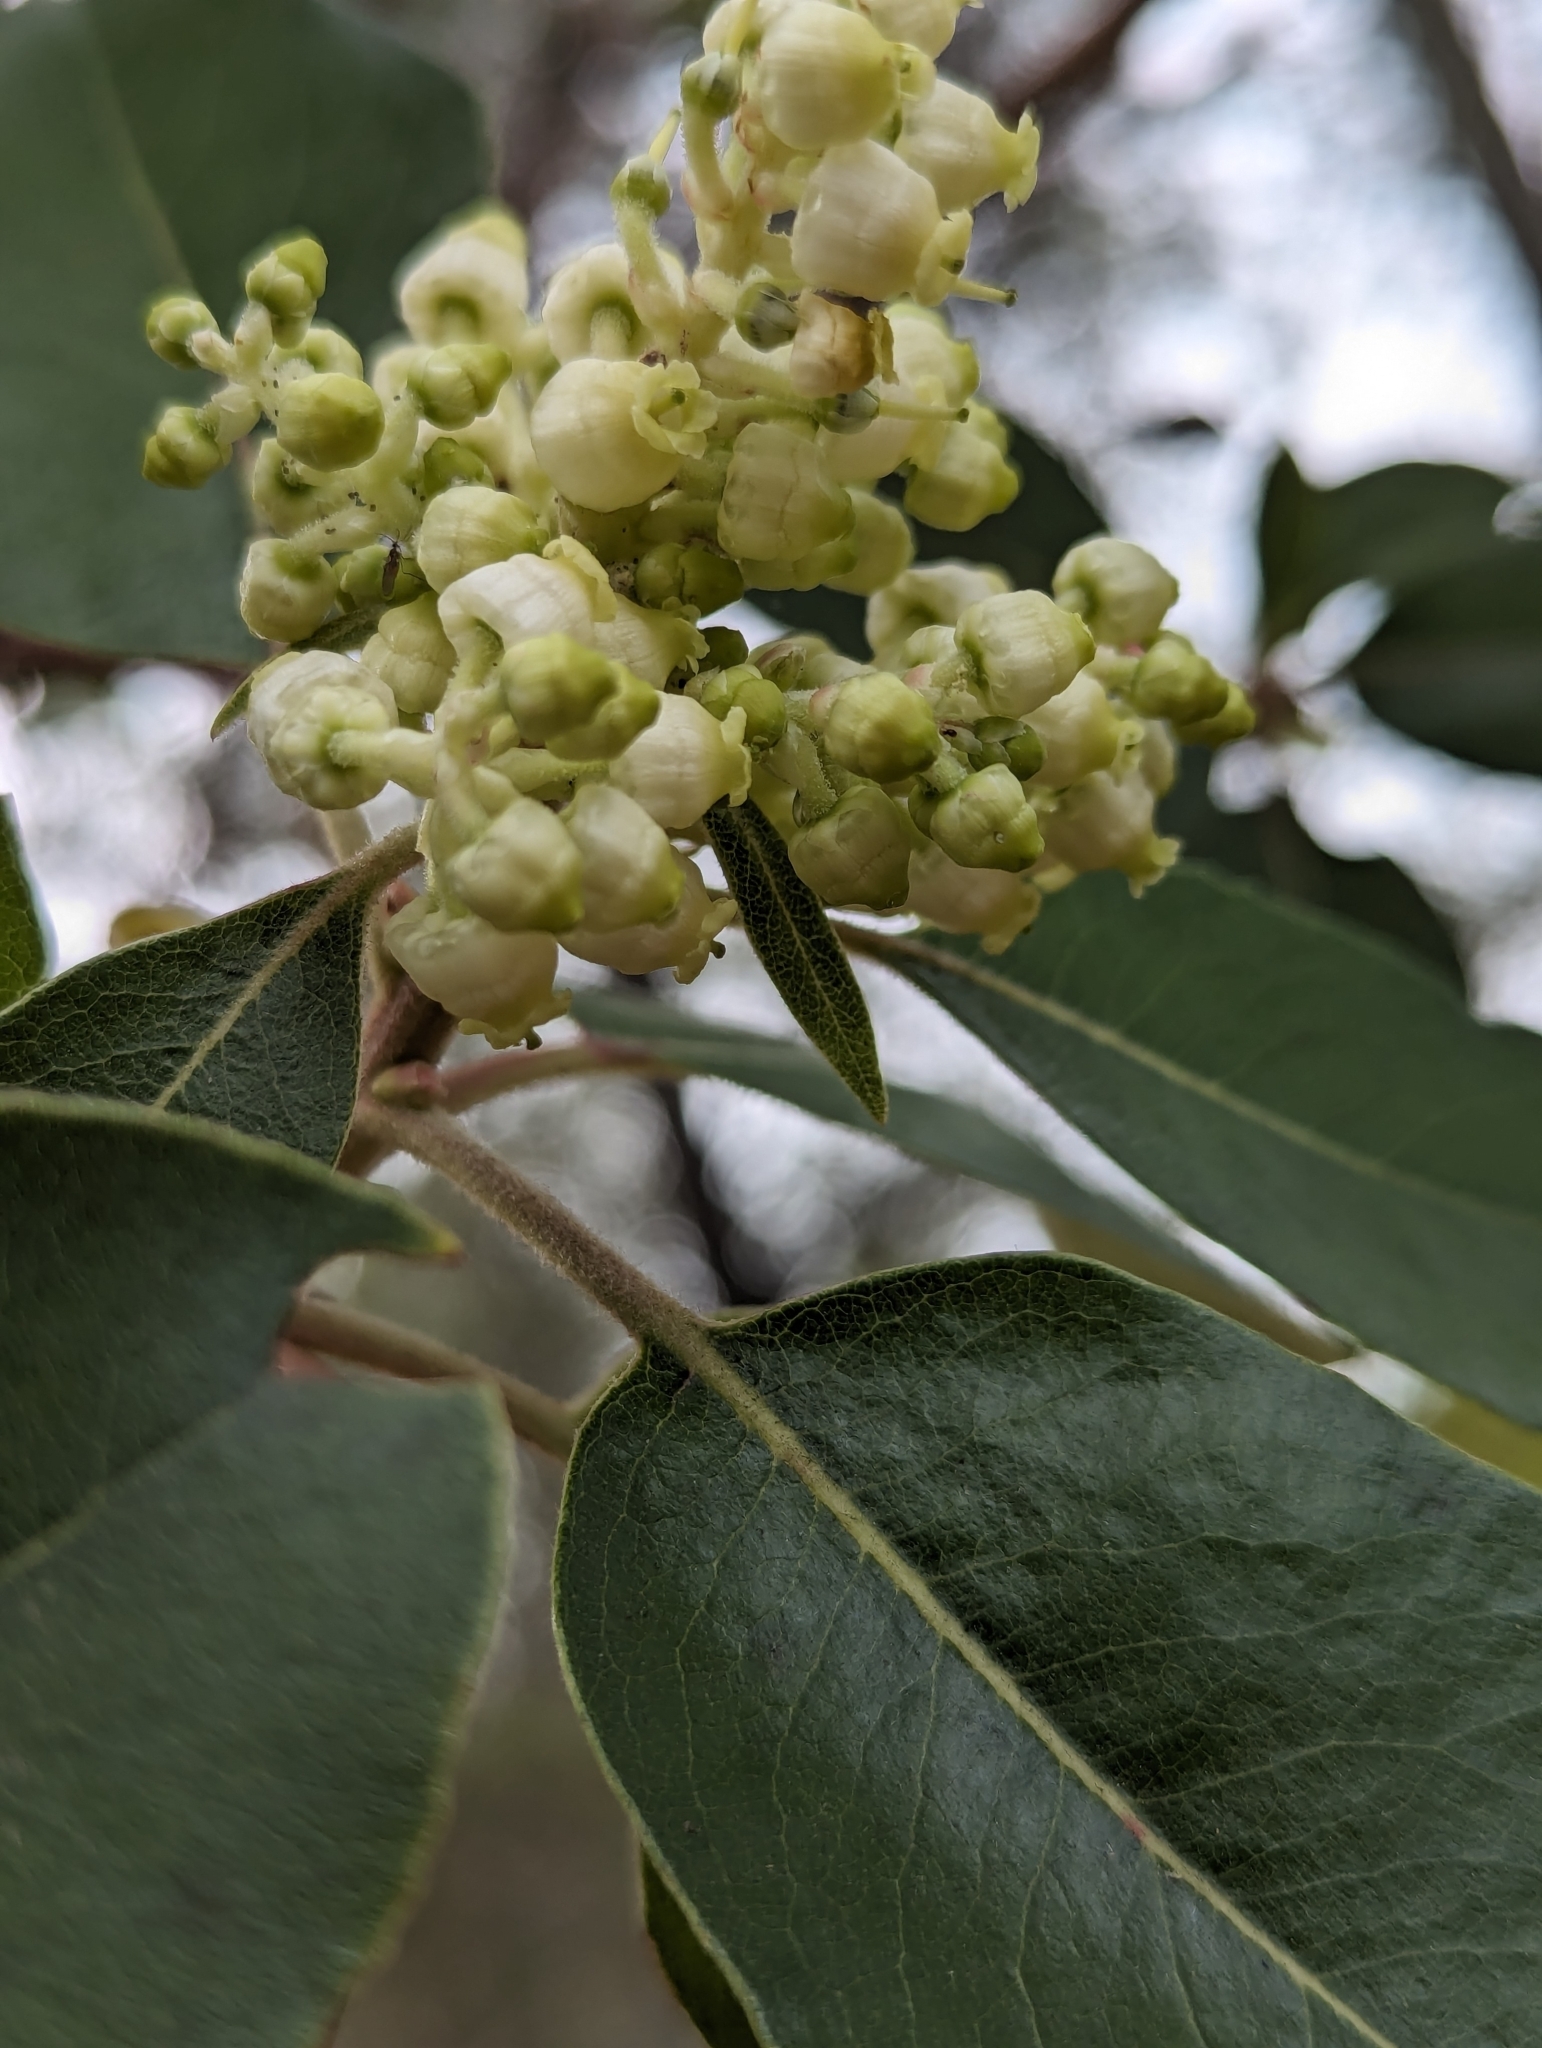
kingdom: Plantae
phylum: Tracheophyta
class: Magnoliopsida
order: Ericales
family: Ericaceae
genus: Arbutus
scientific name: Arbutus xalapensis
